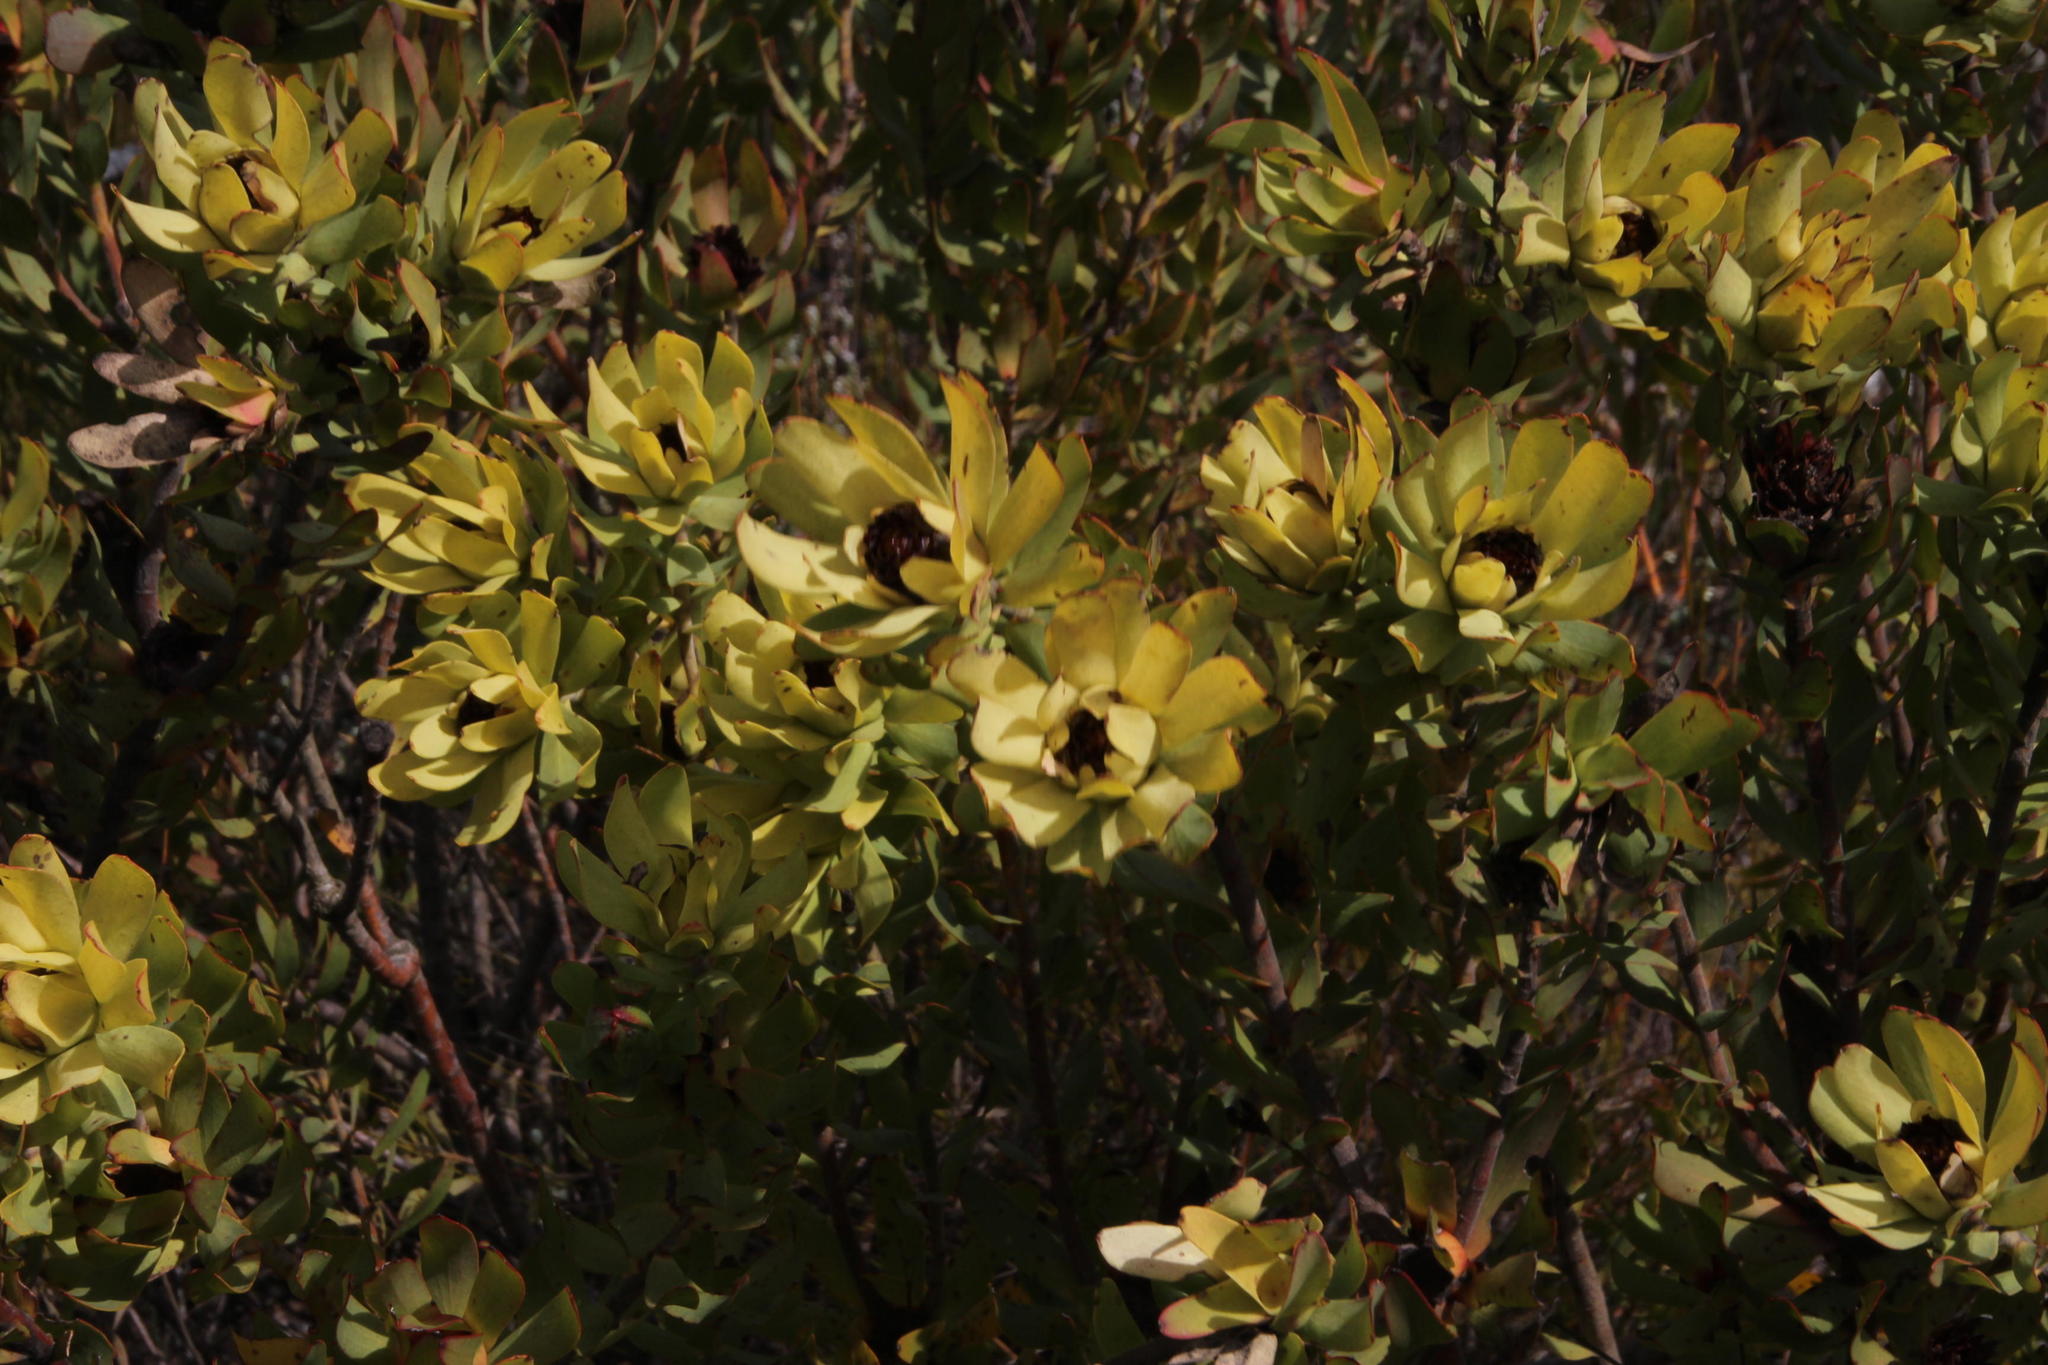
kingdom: Plantae
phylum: Tracheophyta
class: Magnoliopsida
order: Proteales
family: Proteaceae
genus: Leucadendron
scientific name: Leucadendron barkerae
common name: Swartberg conebush
